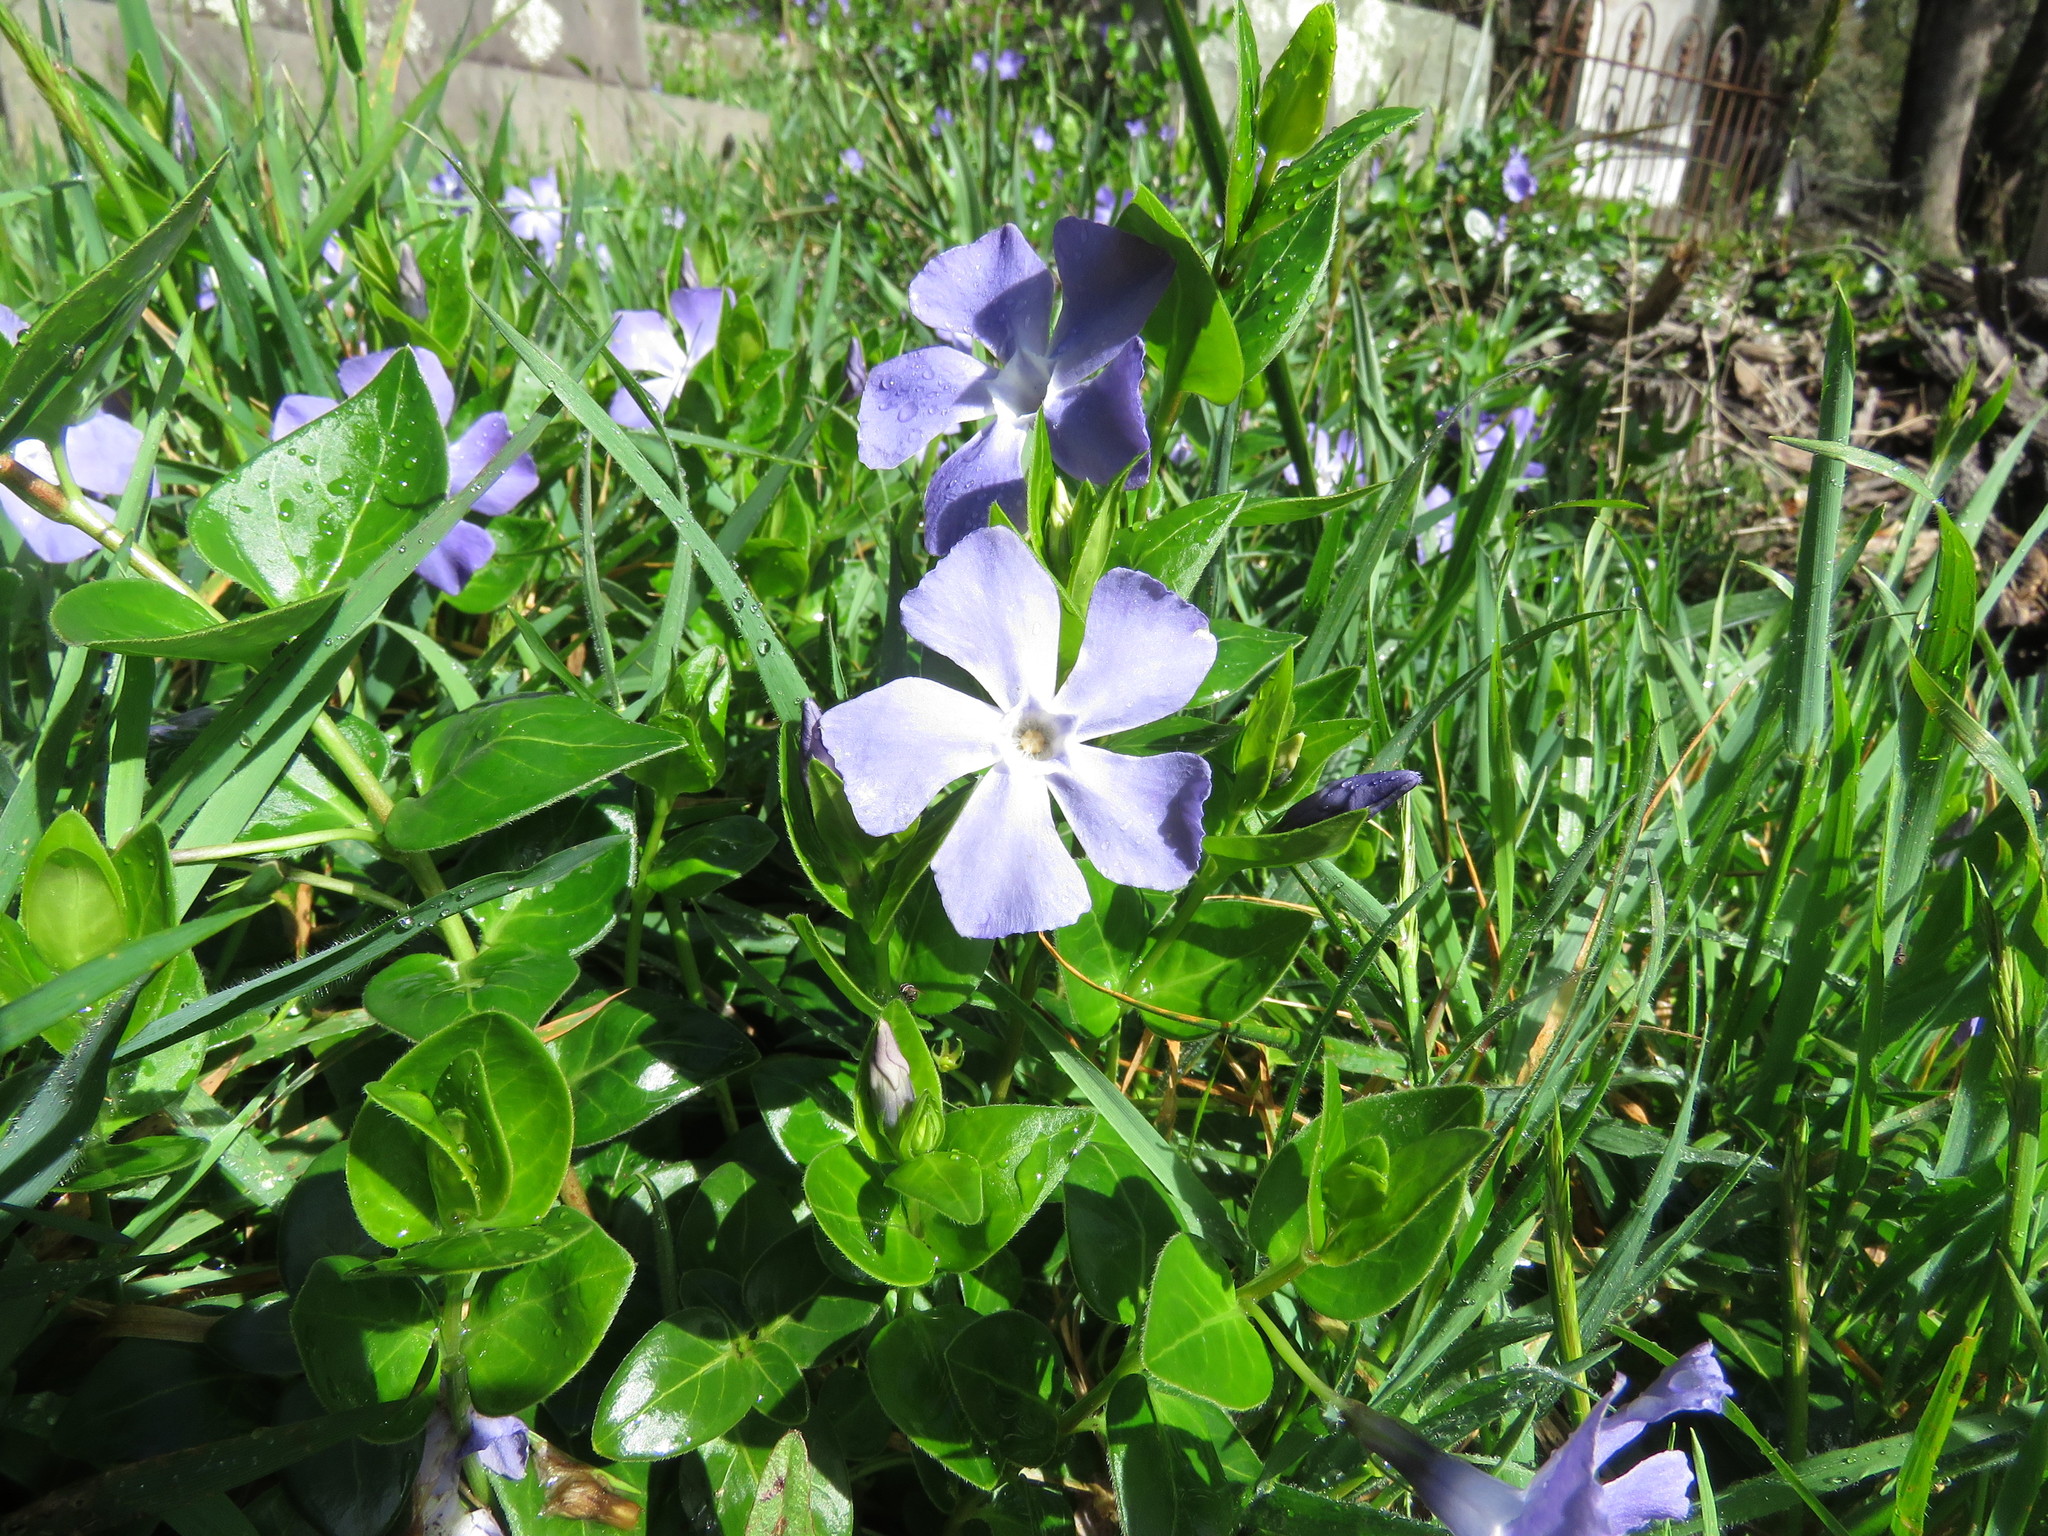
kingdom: Plantae
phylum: Tracheophyta
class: Magnoliopsida
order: Gentianales
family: Apocynaceae
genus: Vinca
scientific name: Vinca major
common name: Greater periwinkle
